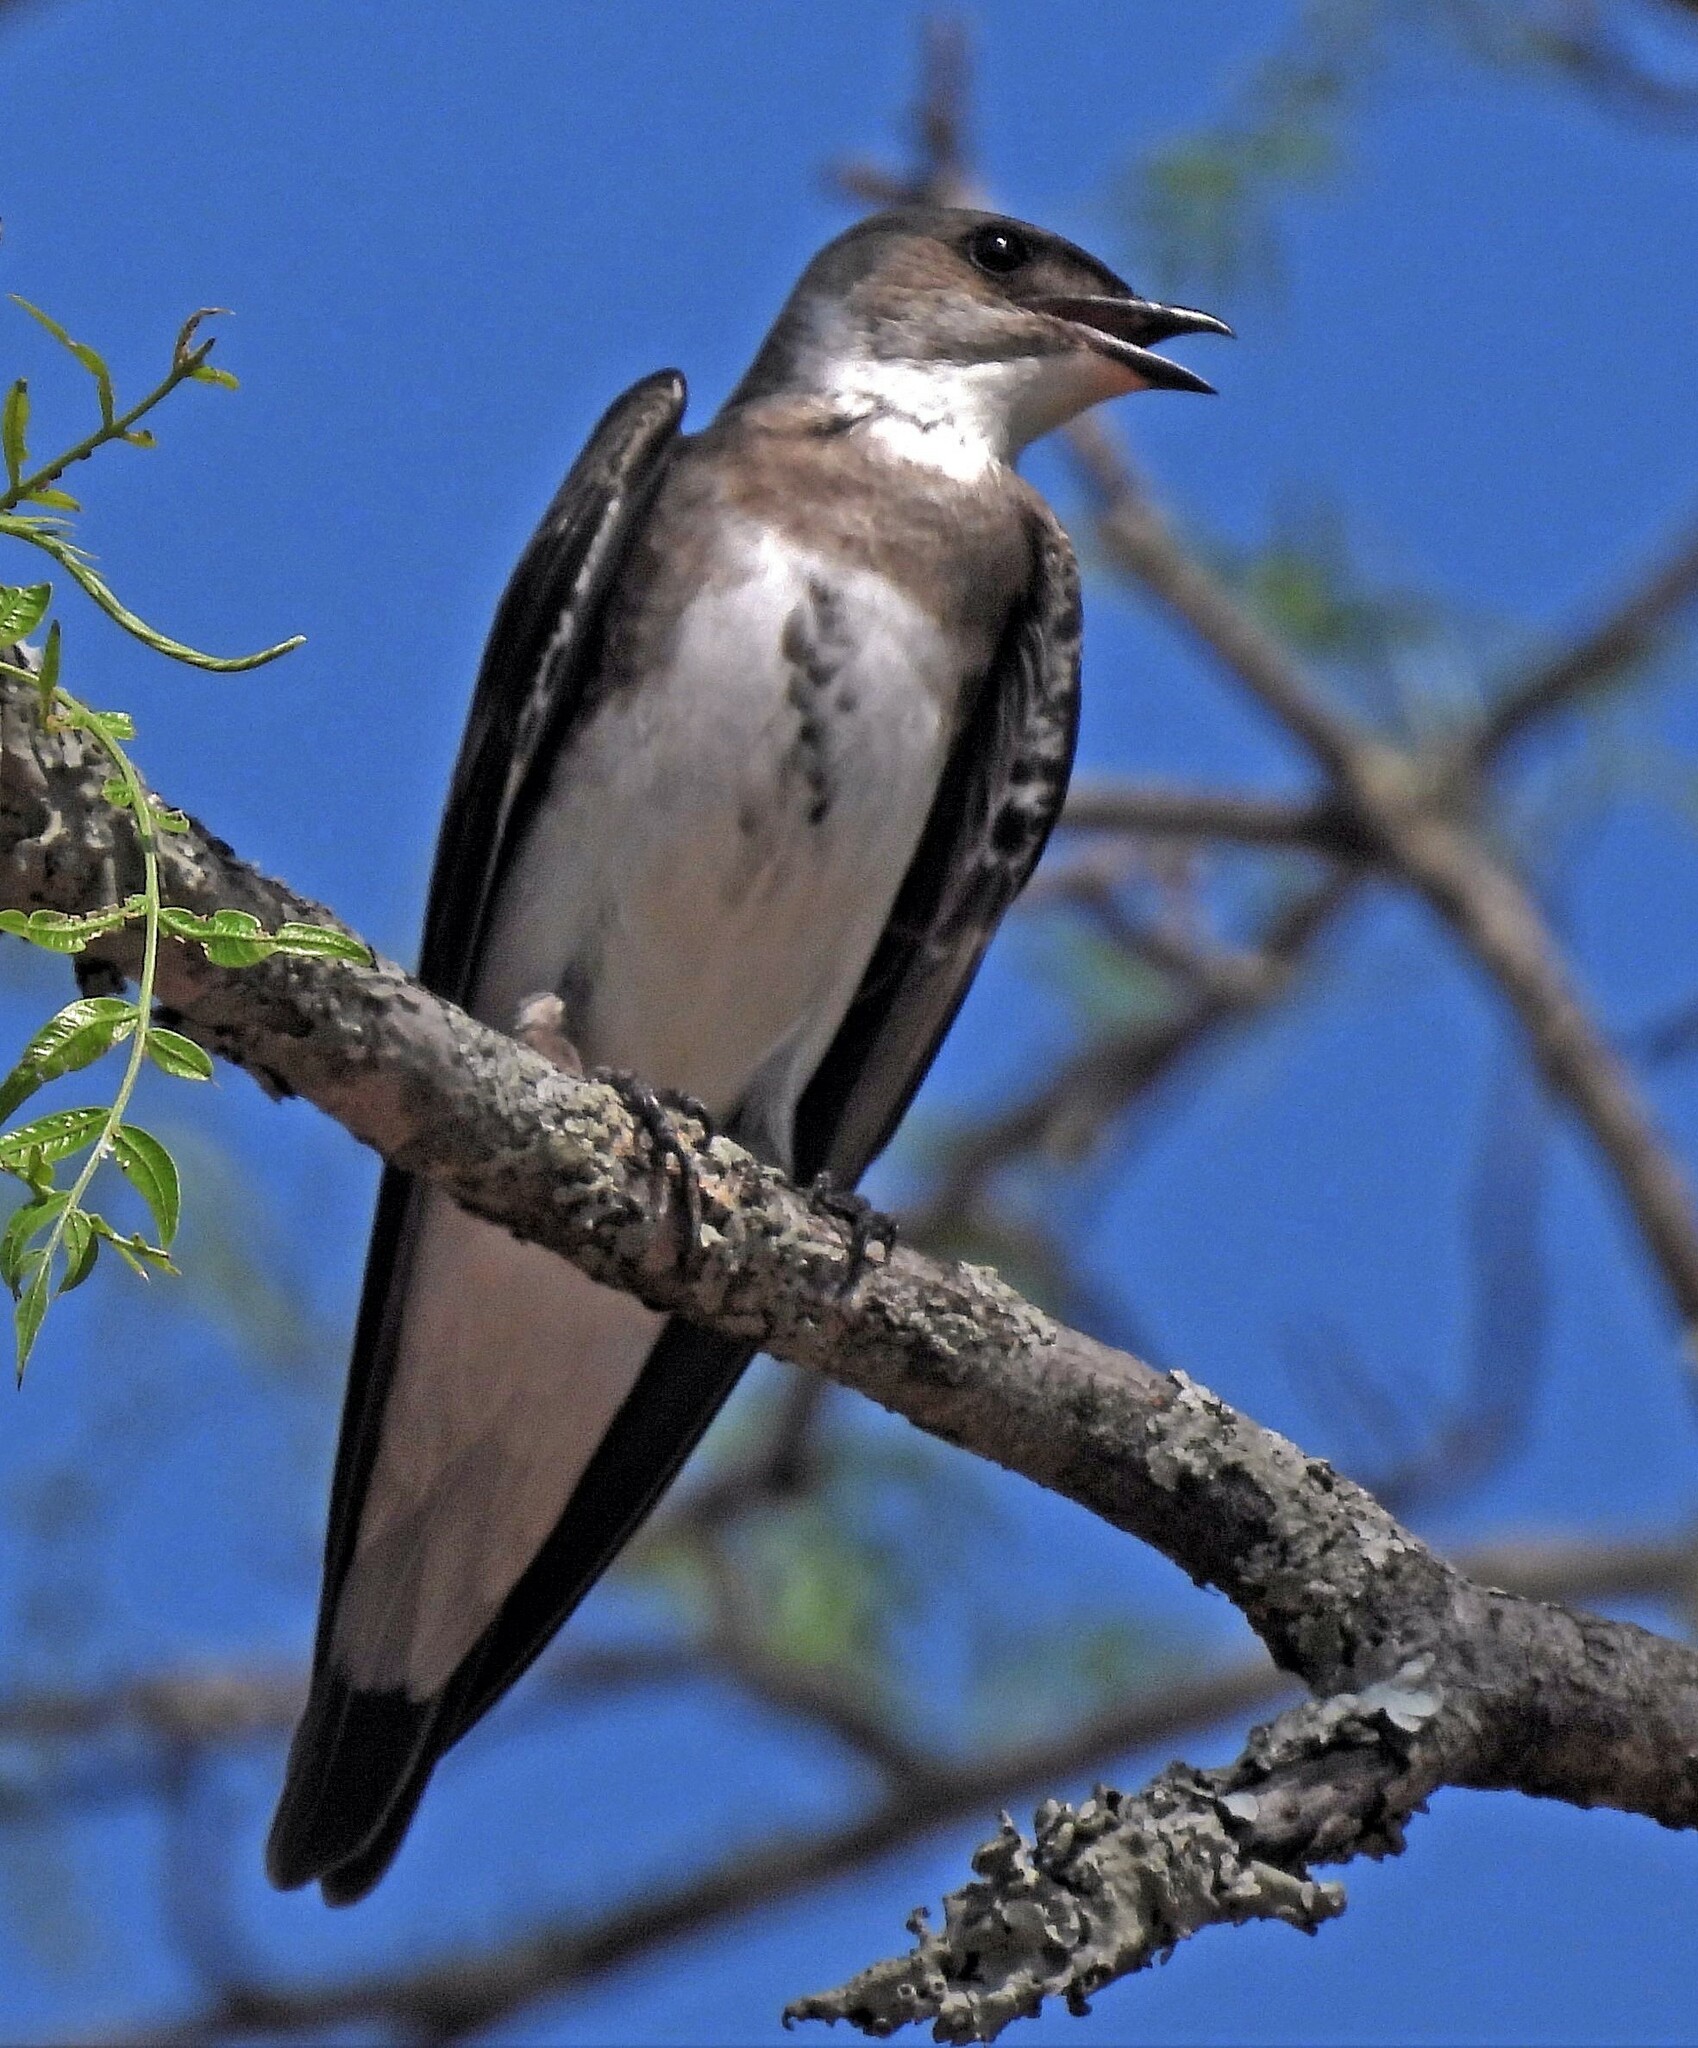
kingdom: Animalia
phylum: Chordata
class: Aves
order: Passeriformes
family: Hirundinidae
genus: Progne
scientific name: Progne tapera
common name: Brown-chested martin
